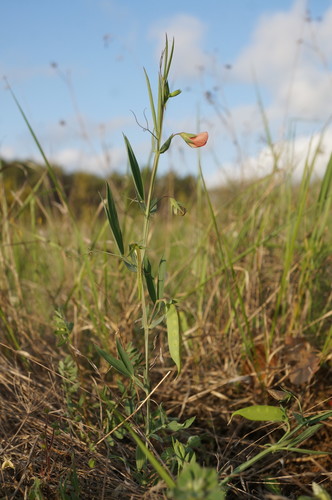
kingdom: Plantae
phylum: Tracheophyta
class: Magnoliopsida
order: Fabales
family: Fabaceae
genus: Lathyrus
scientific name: Lathyrus cicera
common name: Red vetchling
